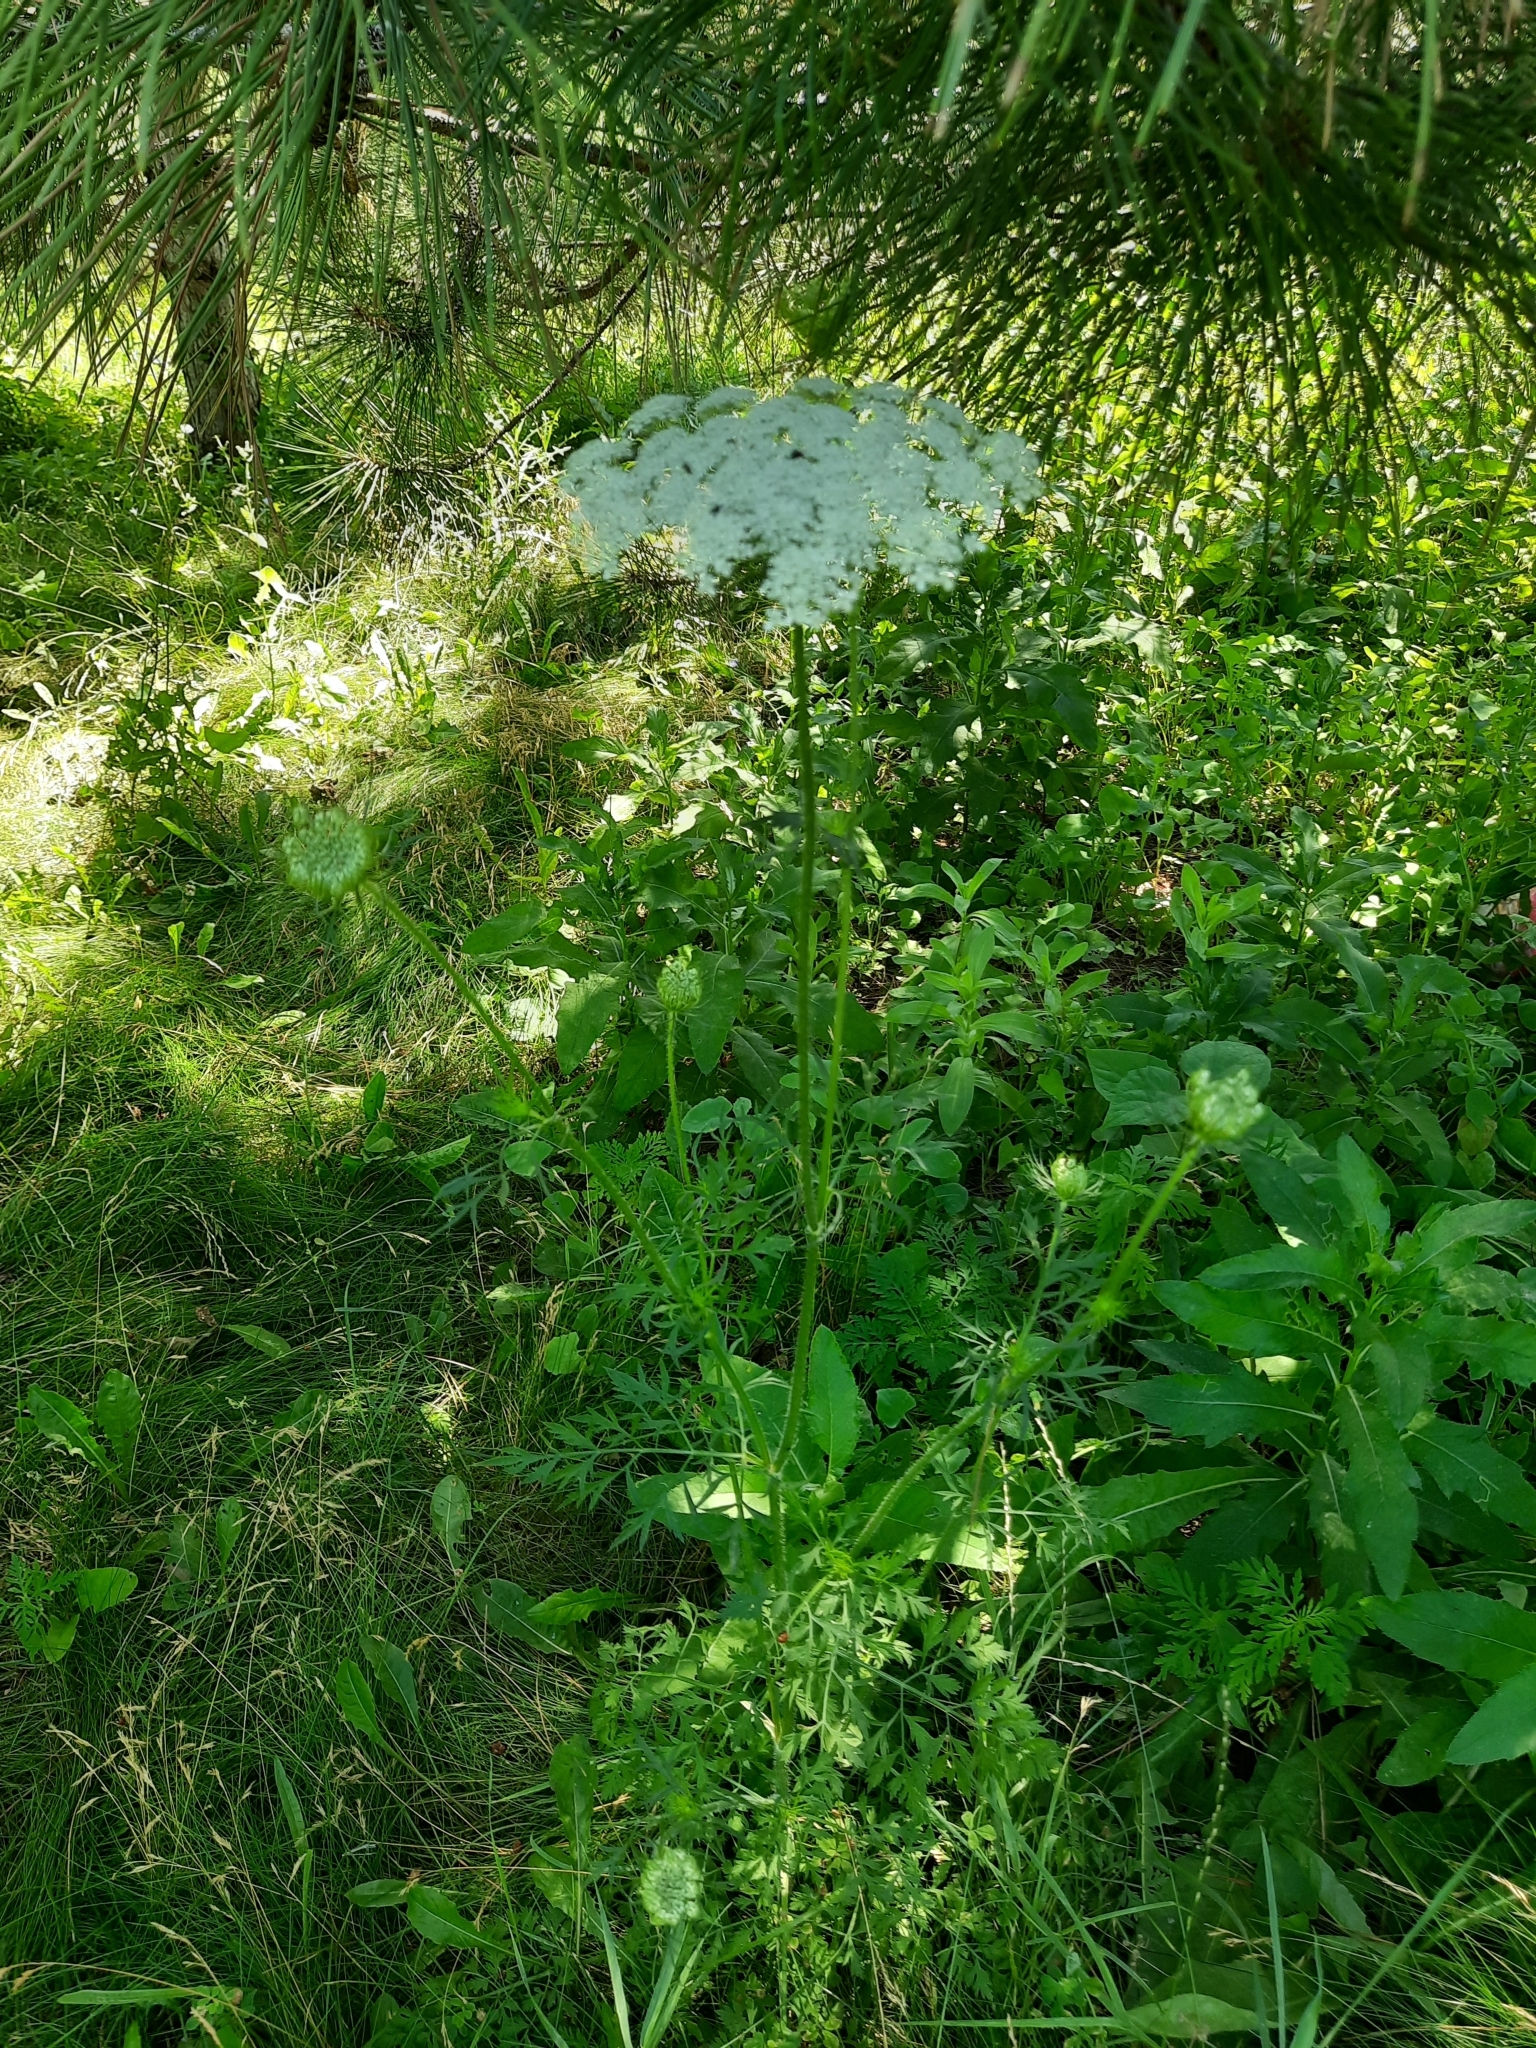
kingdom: Plantae
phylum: Tracheophyta
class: Magnoliopsida
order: Apiales
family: Apiaceae
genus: Daucus
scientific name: Daucus carota
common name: Wild carrot
